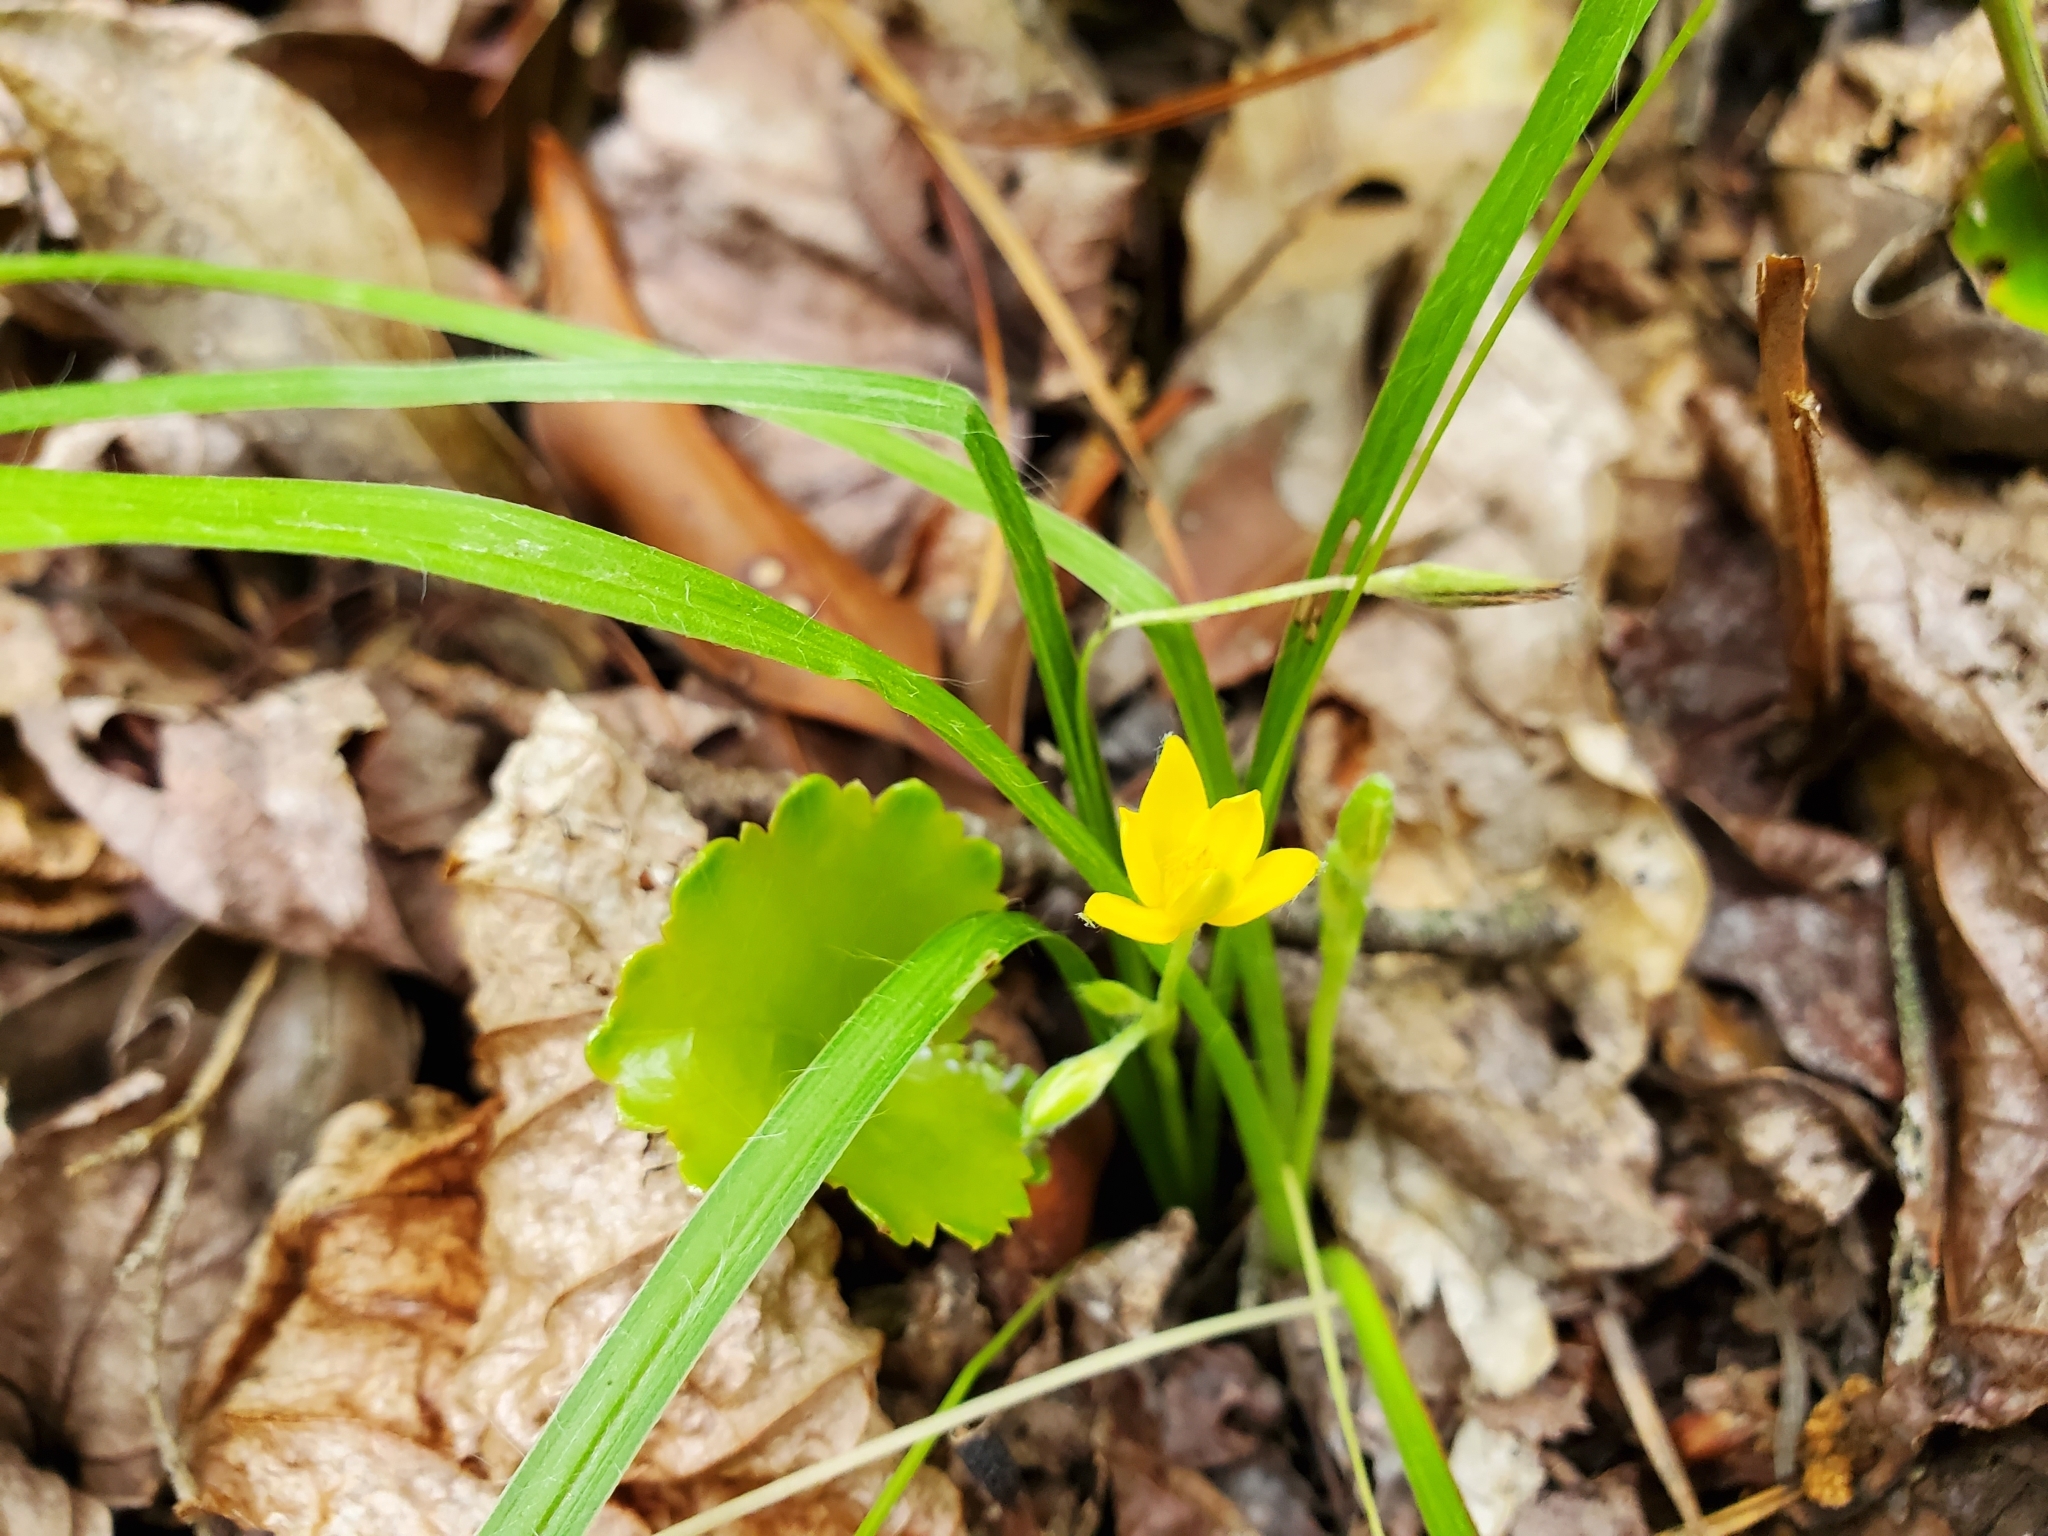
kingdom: Plantae
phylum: Tracheophyta
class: Liliopsida
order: Asparagales
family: Hypoxidaceae
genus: Hypoxis
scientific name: Hypoxis hirsuta
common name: Common goldstar
